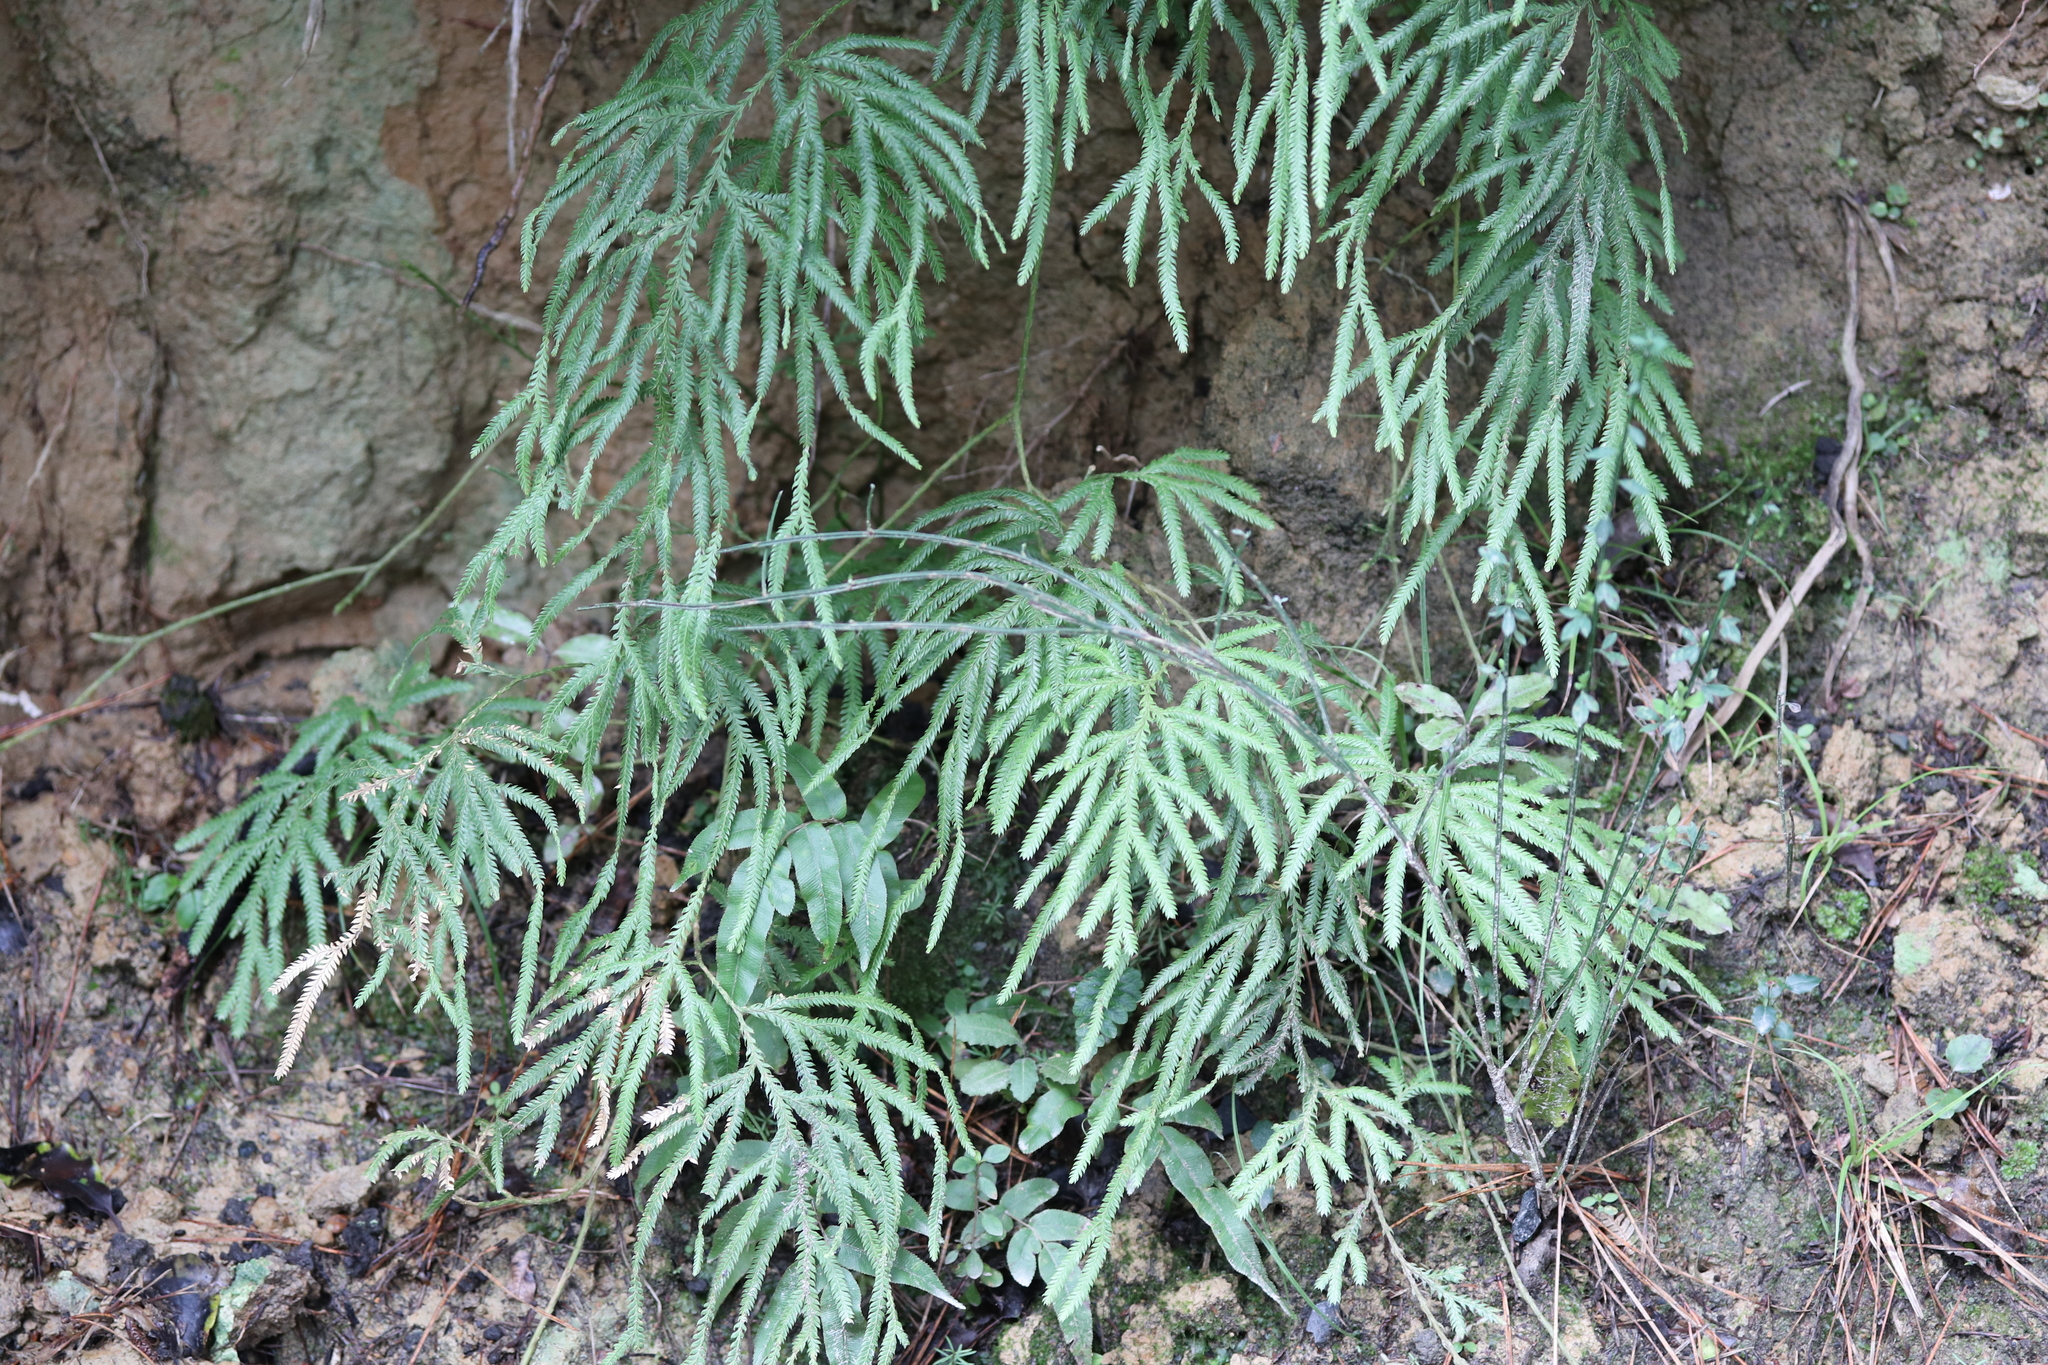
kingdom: Plantae
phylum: Tracheophyta
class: Lycopodiopsida
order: Lycopodiales
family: Lycopodiaceae
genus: Lycopodium
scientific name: Lycopodium volubile
